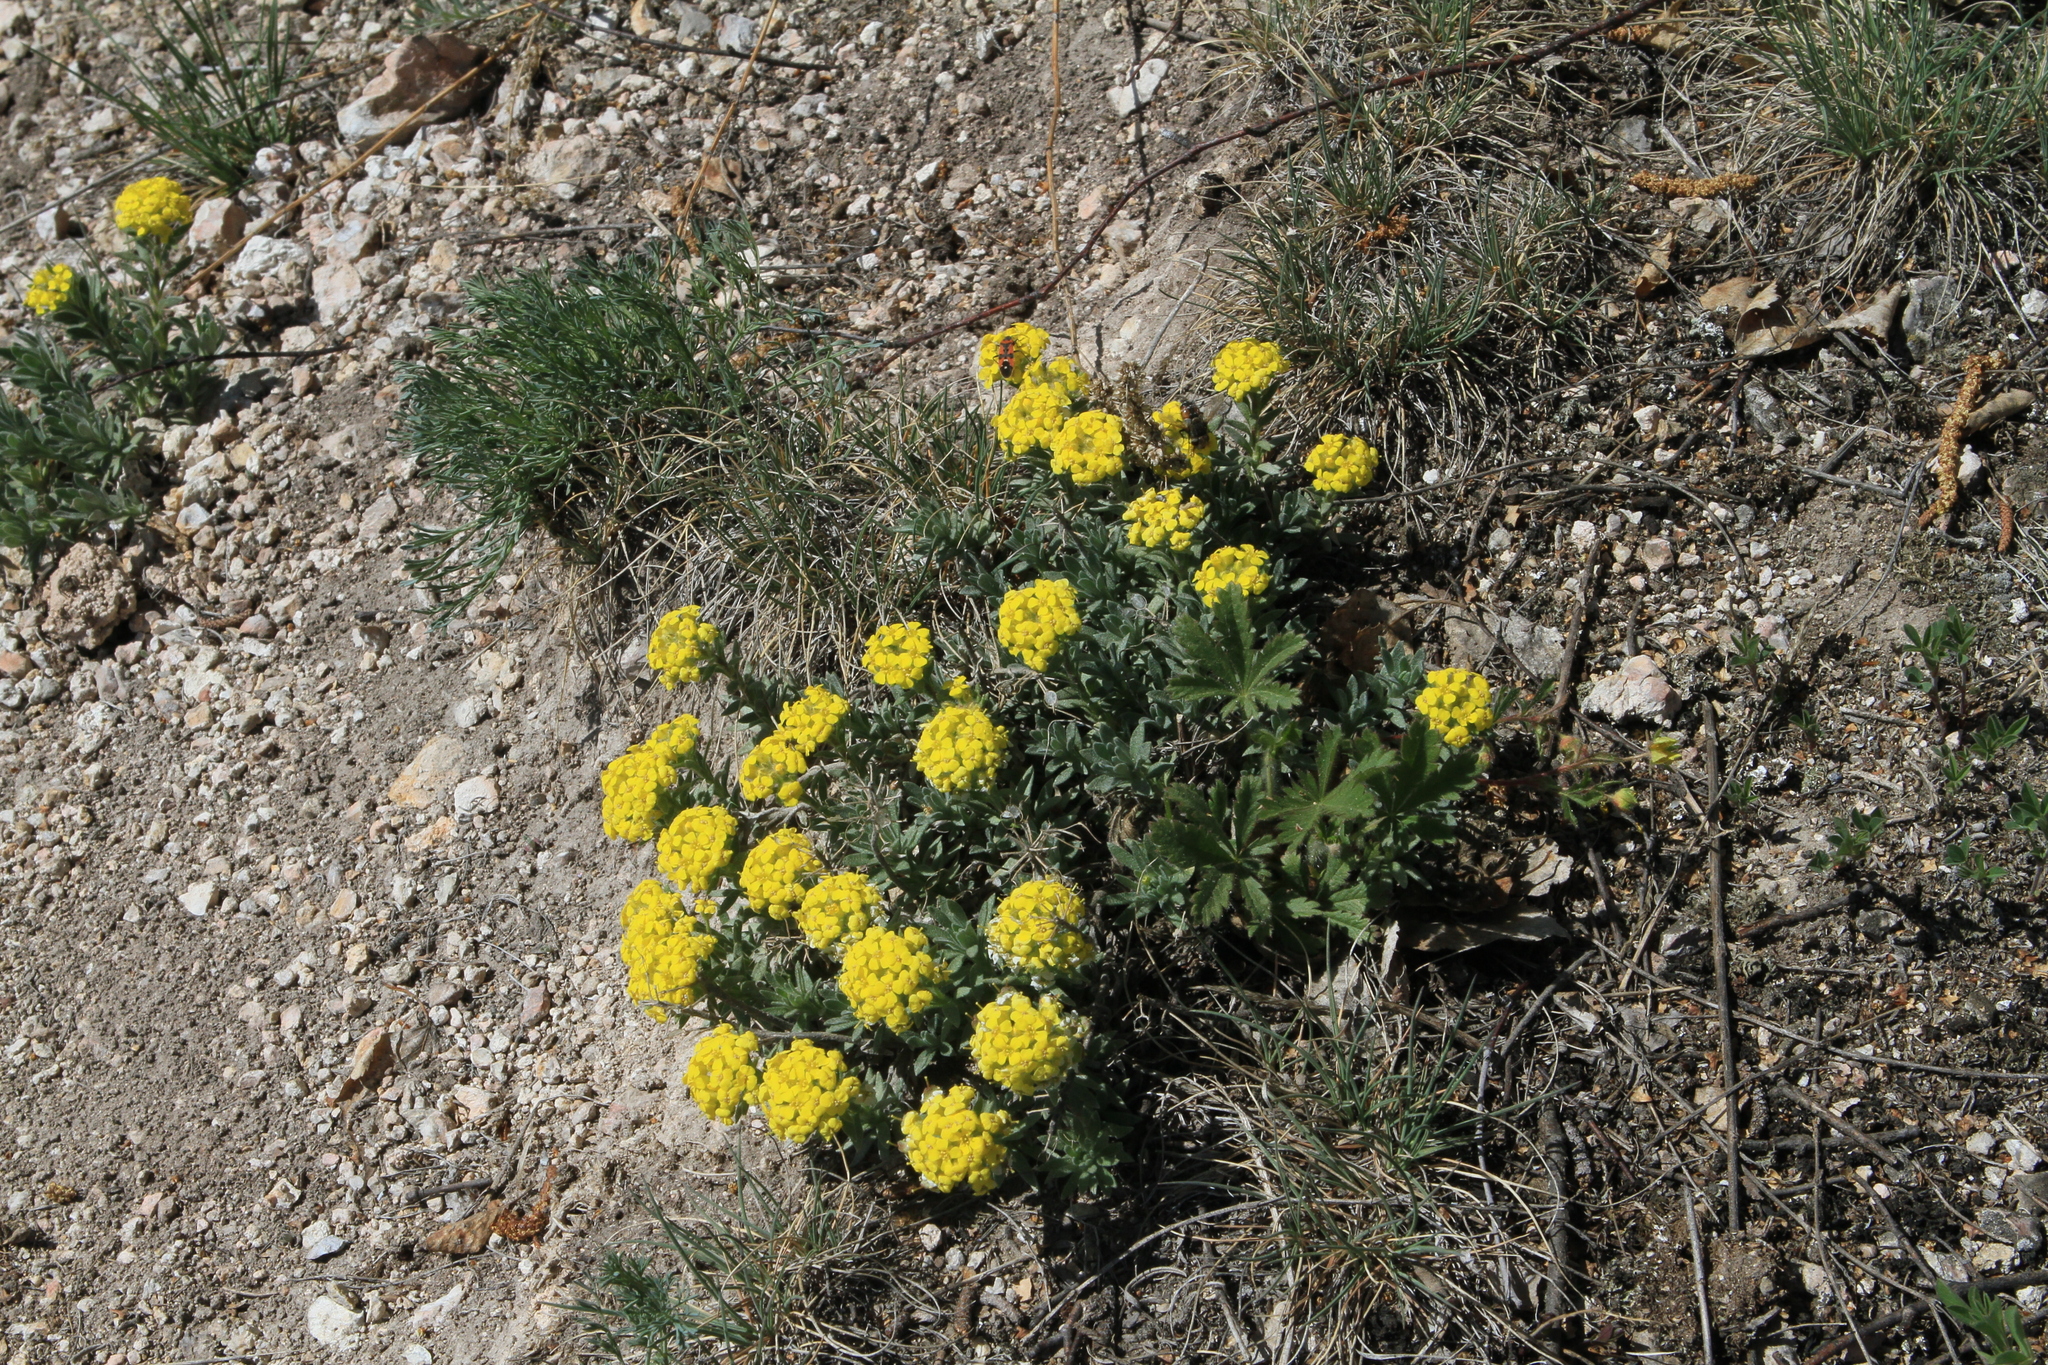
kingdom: Plantae
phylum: Tracheophyta
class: Magnoliopsida
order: Brassicales
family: Brassicaceae
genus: Alyssum
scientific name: Alyssum lenense
